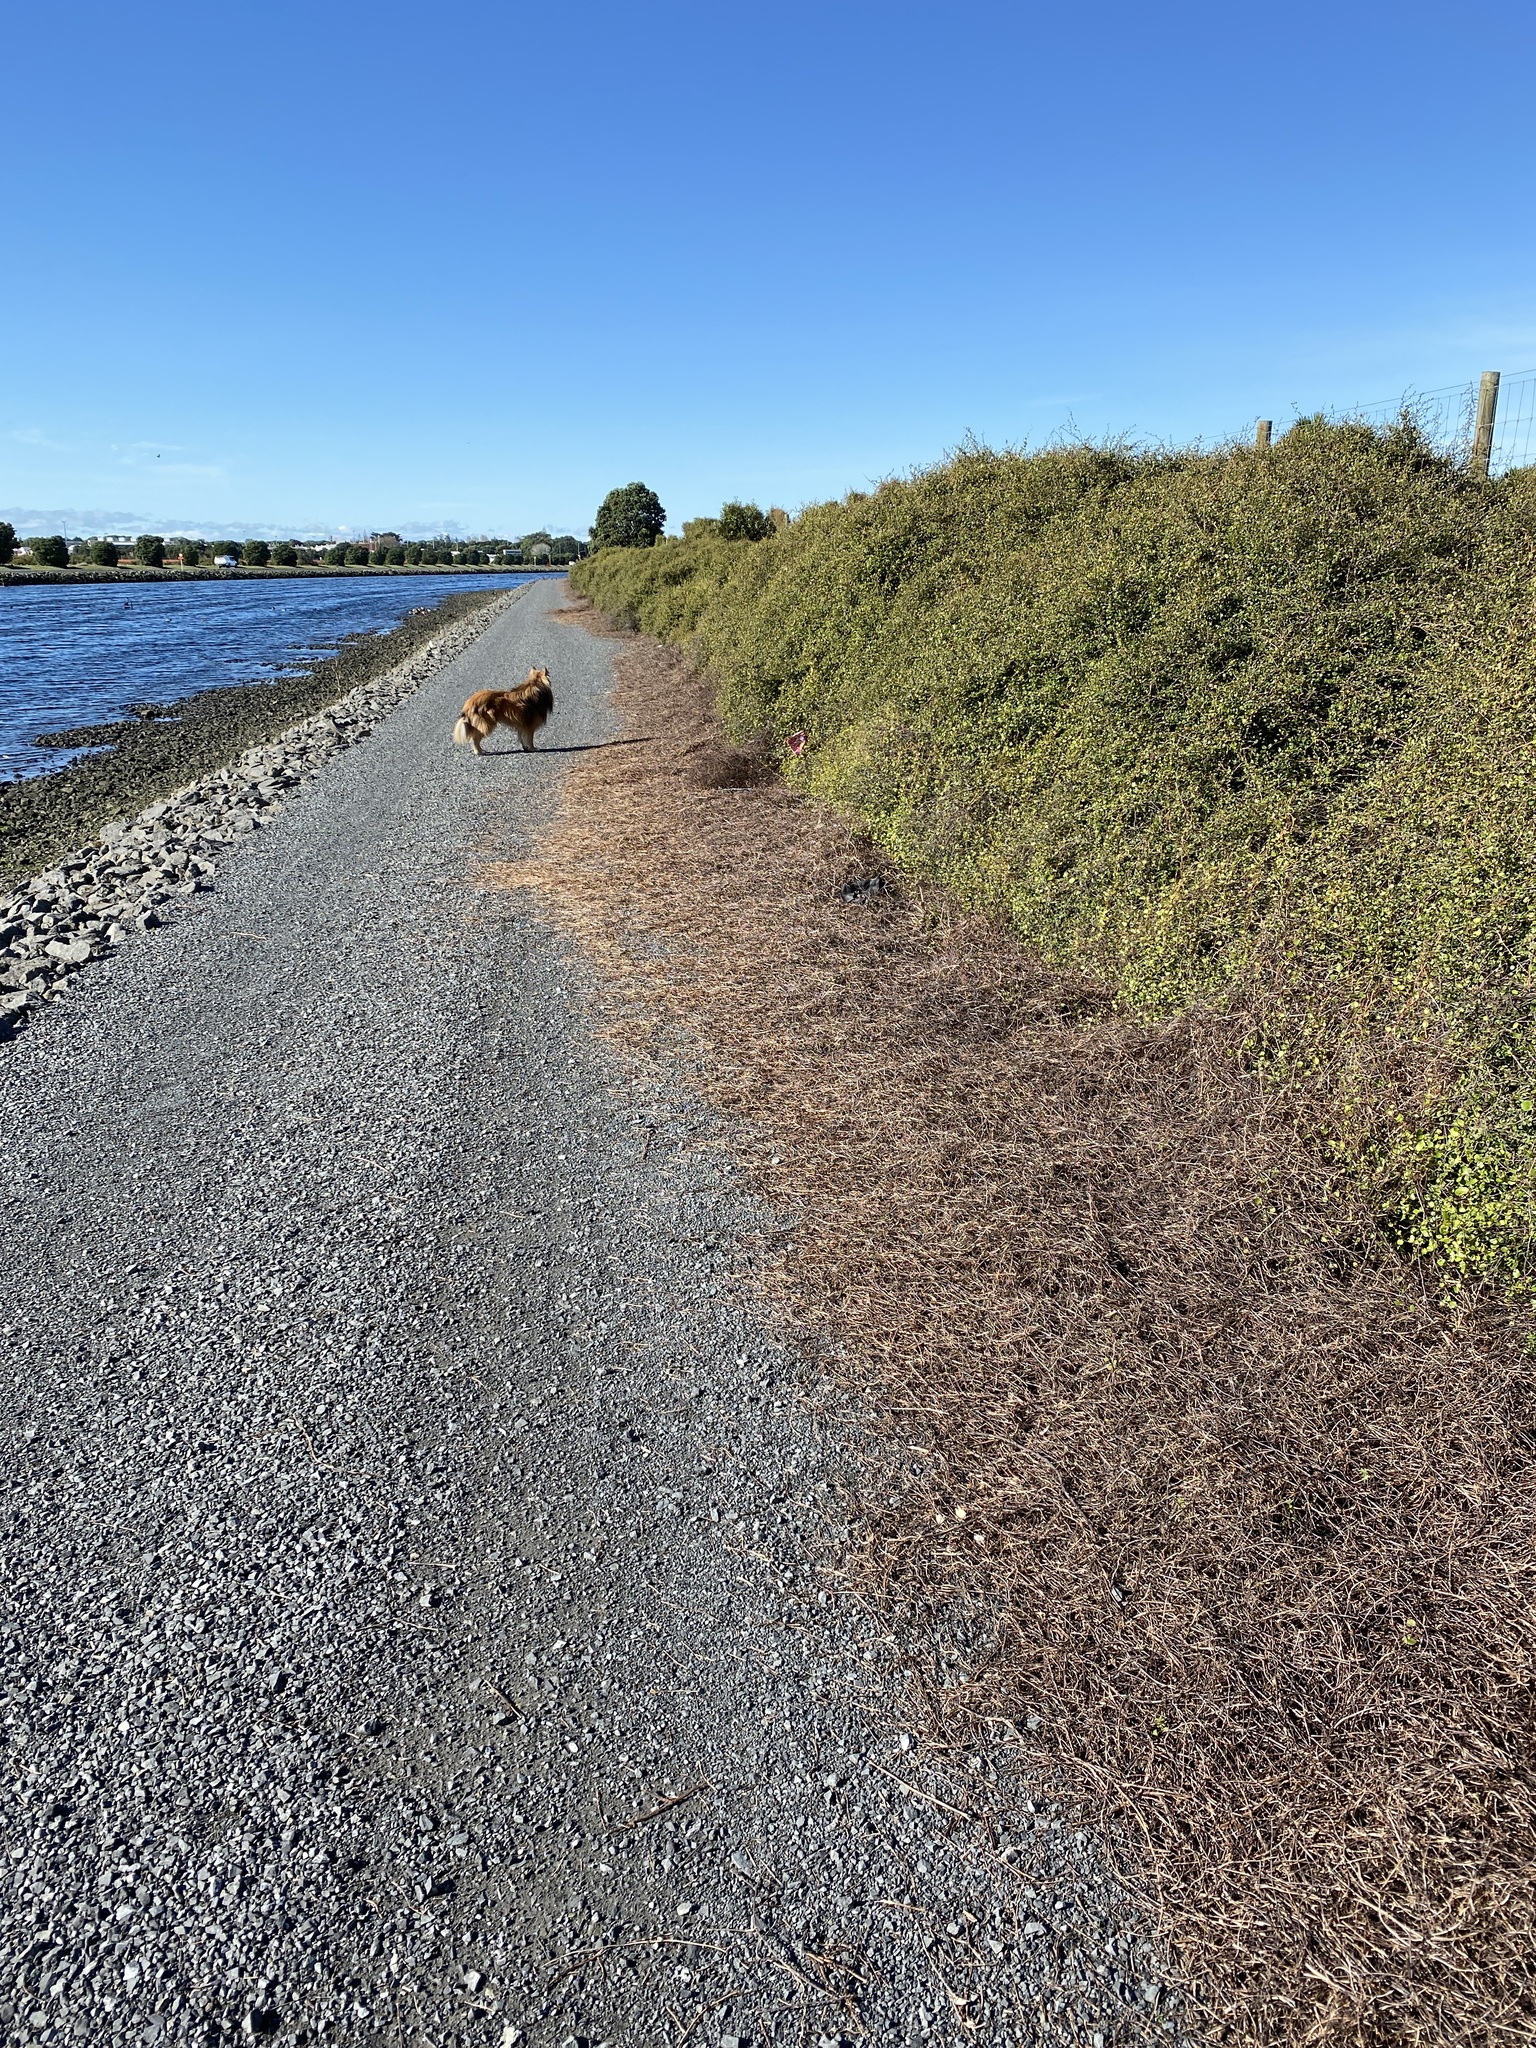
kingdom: Plantae
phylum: Tracheophyta
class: Magnoliopsida
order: Caryophyllales
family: Polygonaceae
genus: Muehlenbeckia
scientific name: Muehlenbeckia complexa
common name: Wireplant
